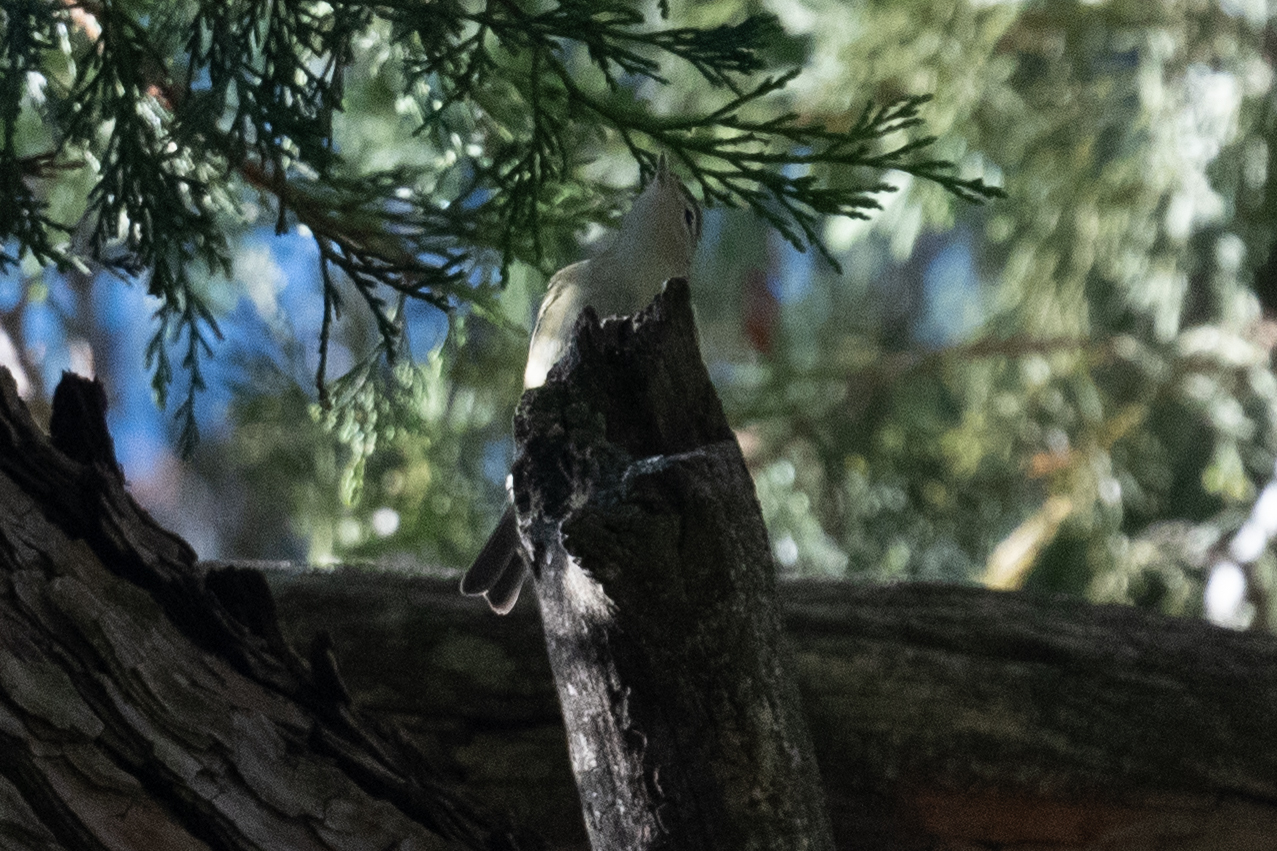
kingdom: Animalia
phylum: Chordata
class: Aves
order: Passeriformes
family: Vireonidae
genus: Vireo
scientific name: Vireo gilvus
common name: Warbling vireo
